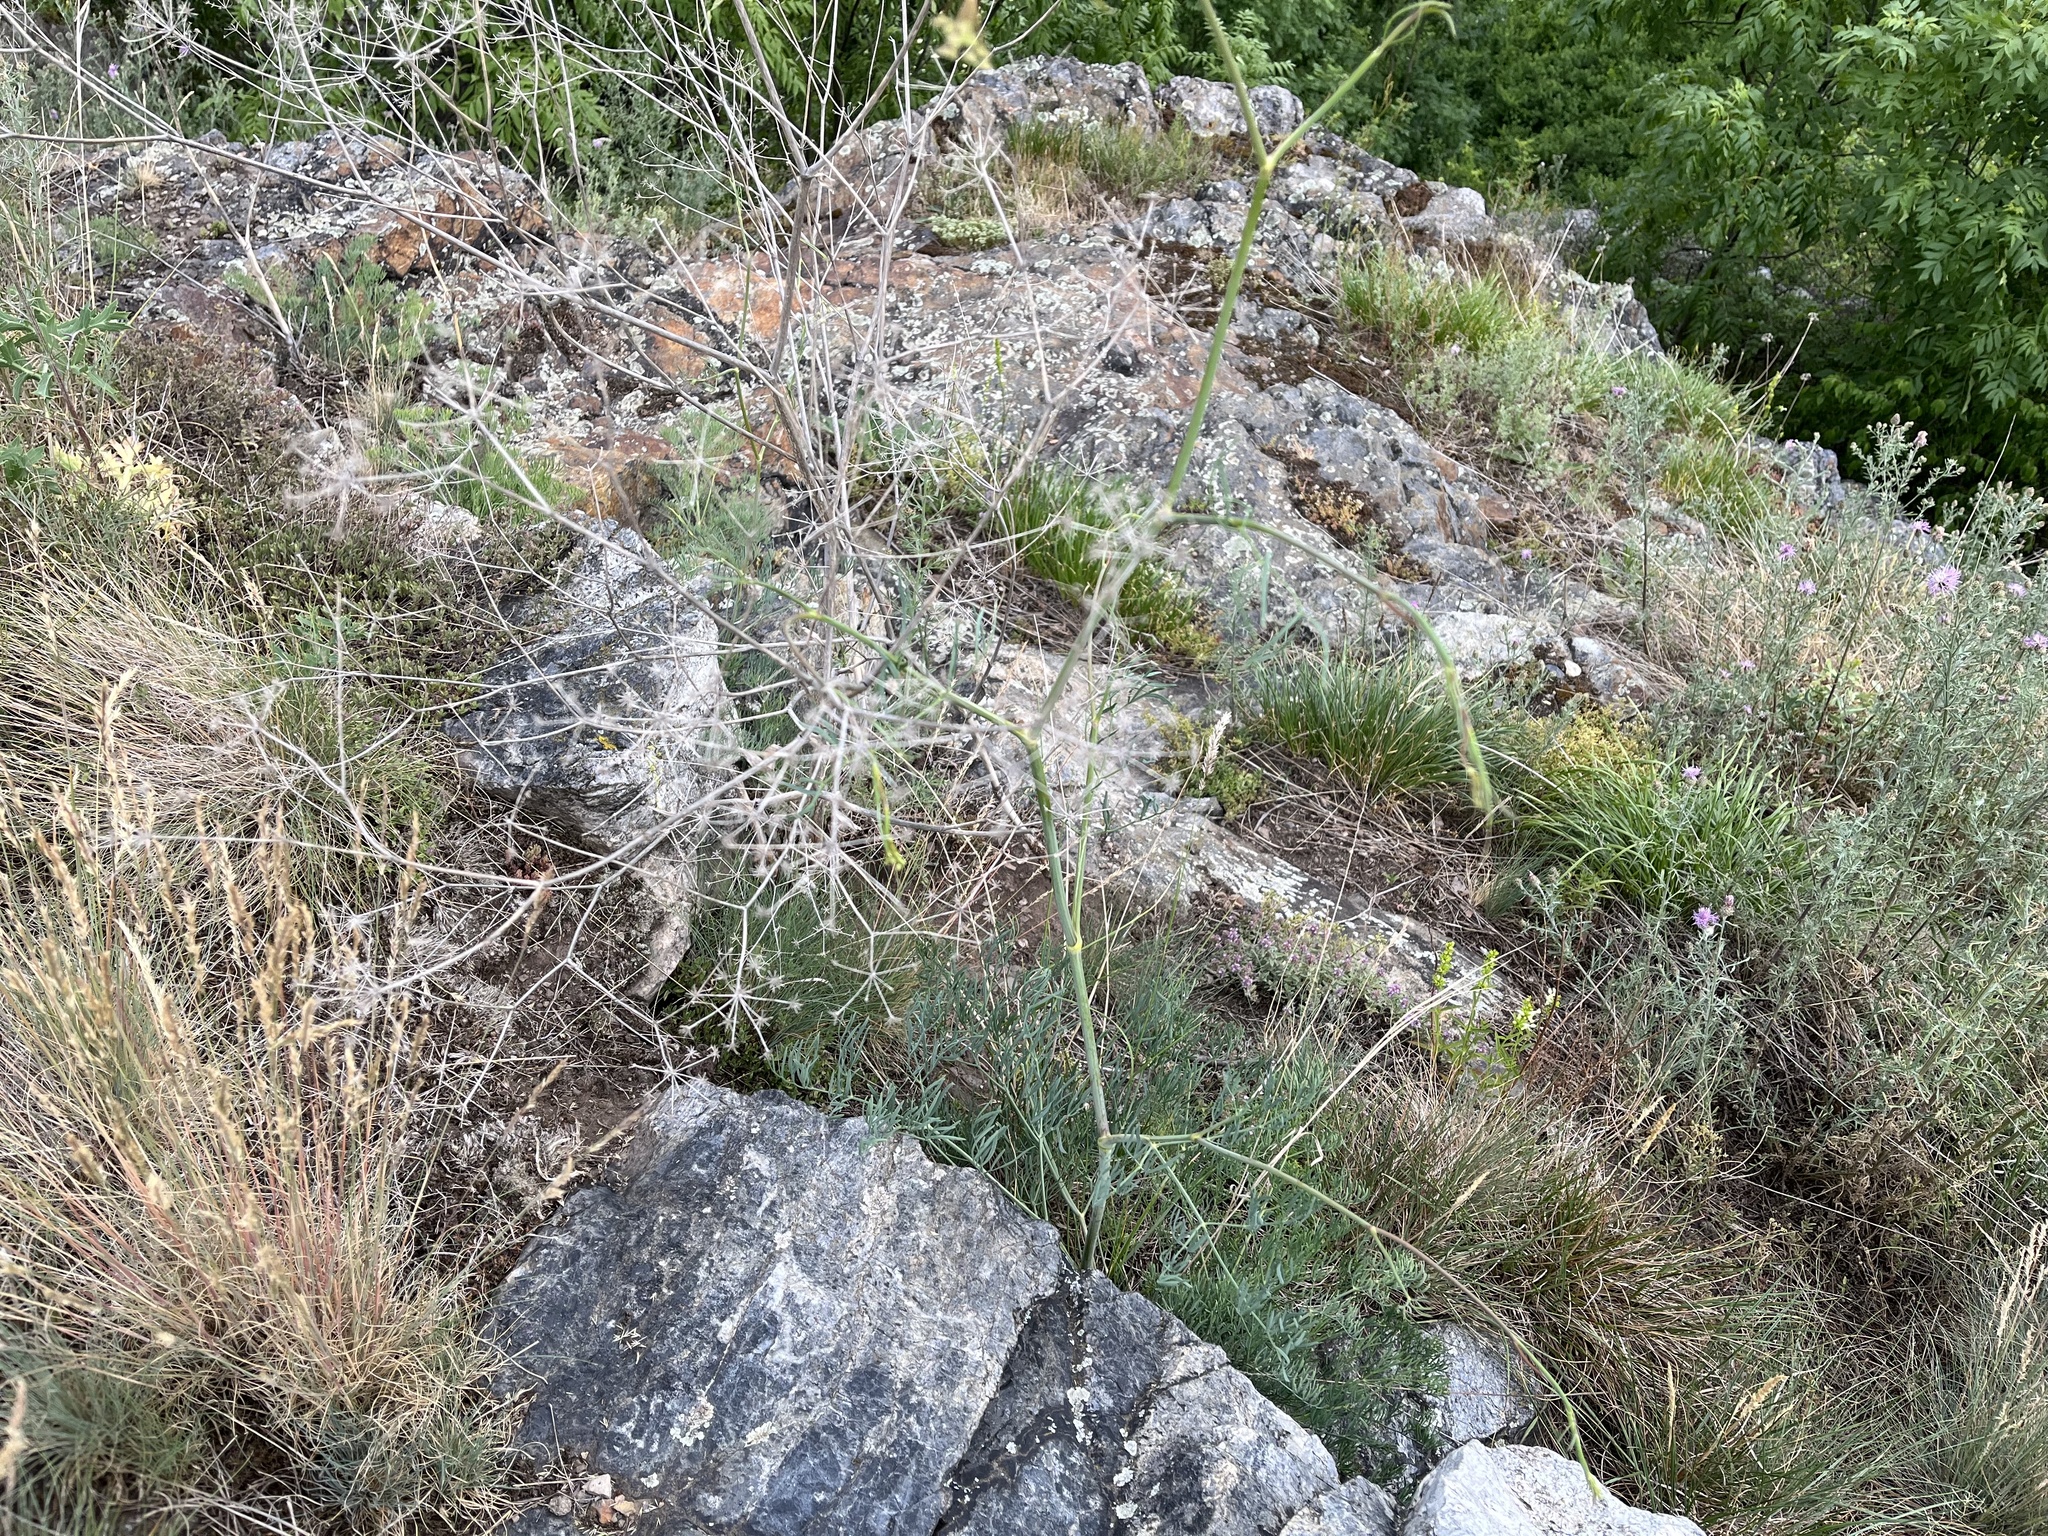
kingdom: Plantae
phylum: Tracheophyta
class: Magnoliopsida
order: Apiales
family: Apiaceae
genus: Seseli
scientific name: Seseli osseum
